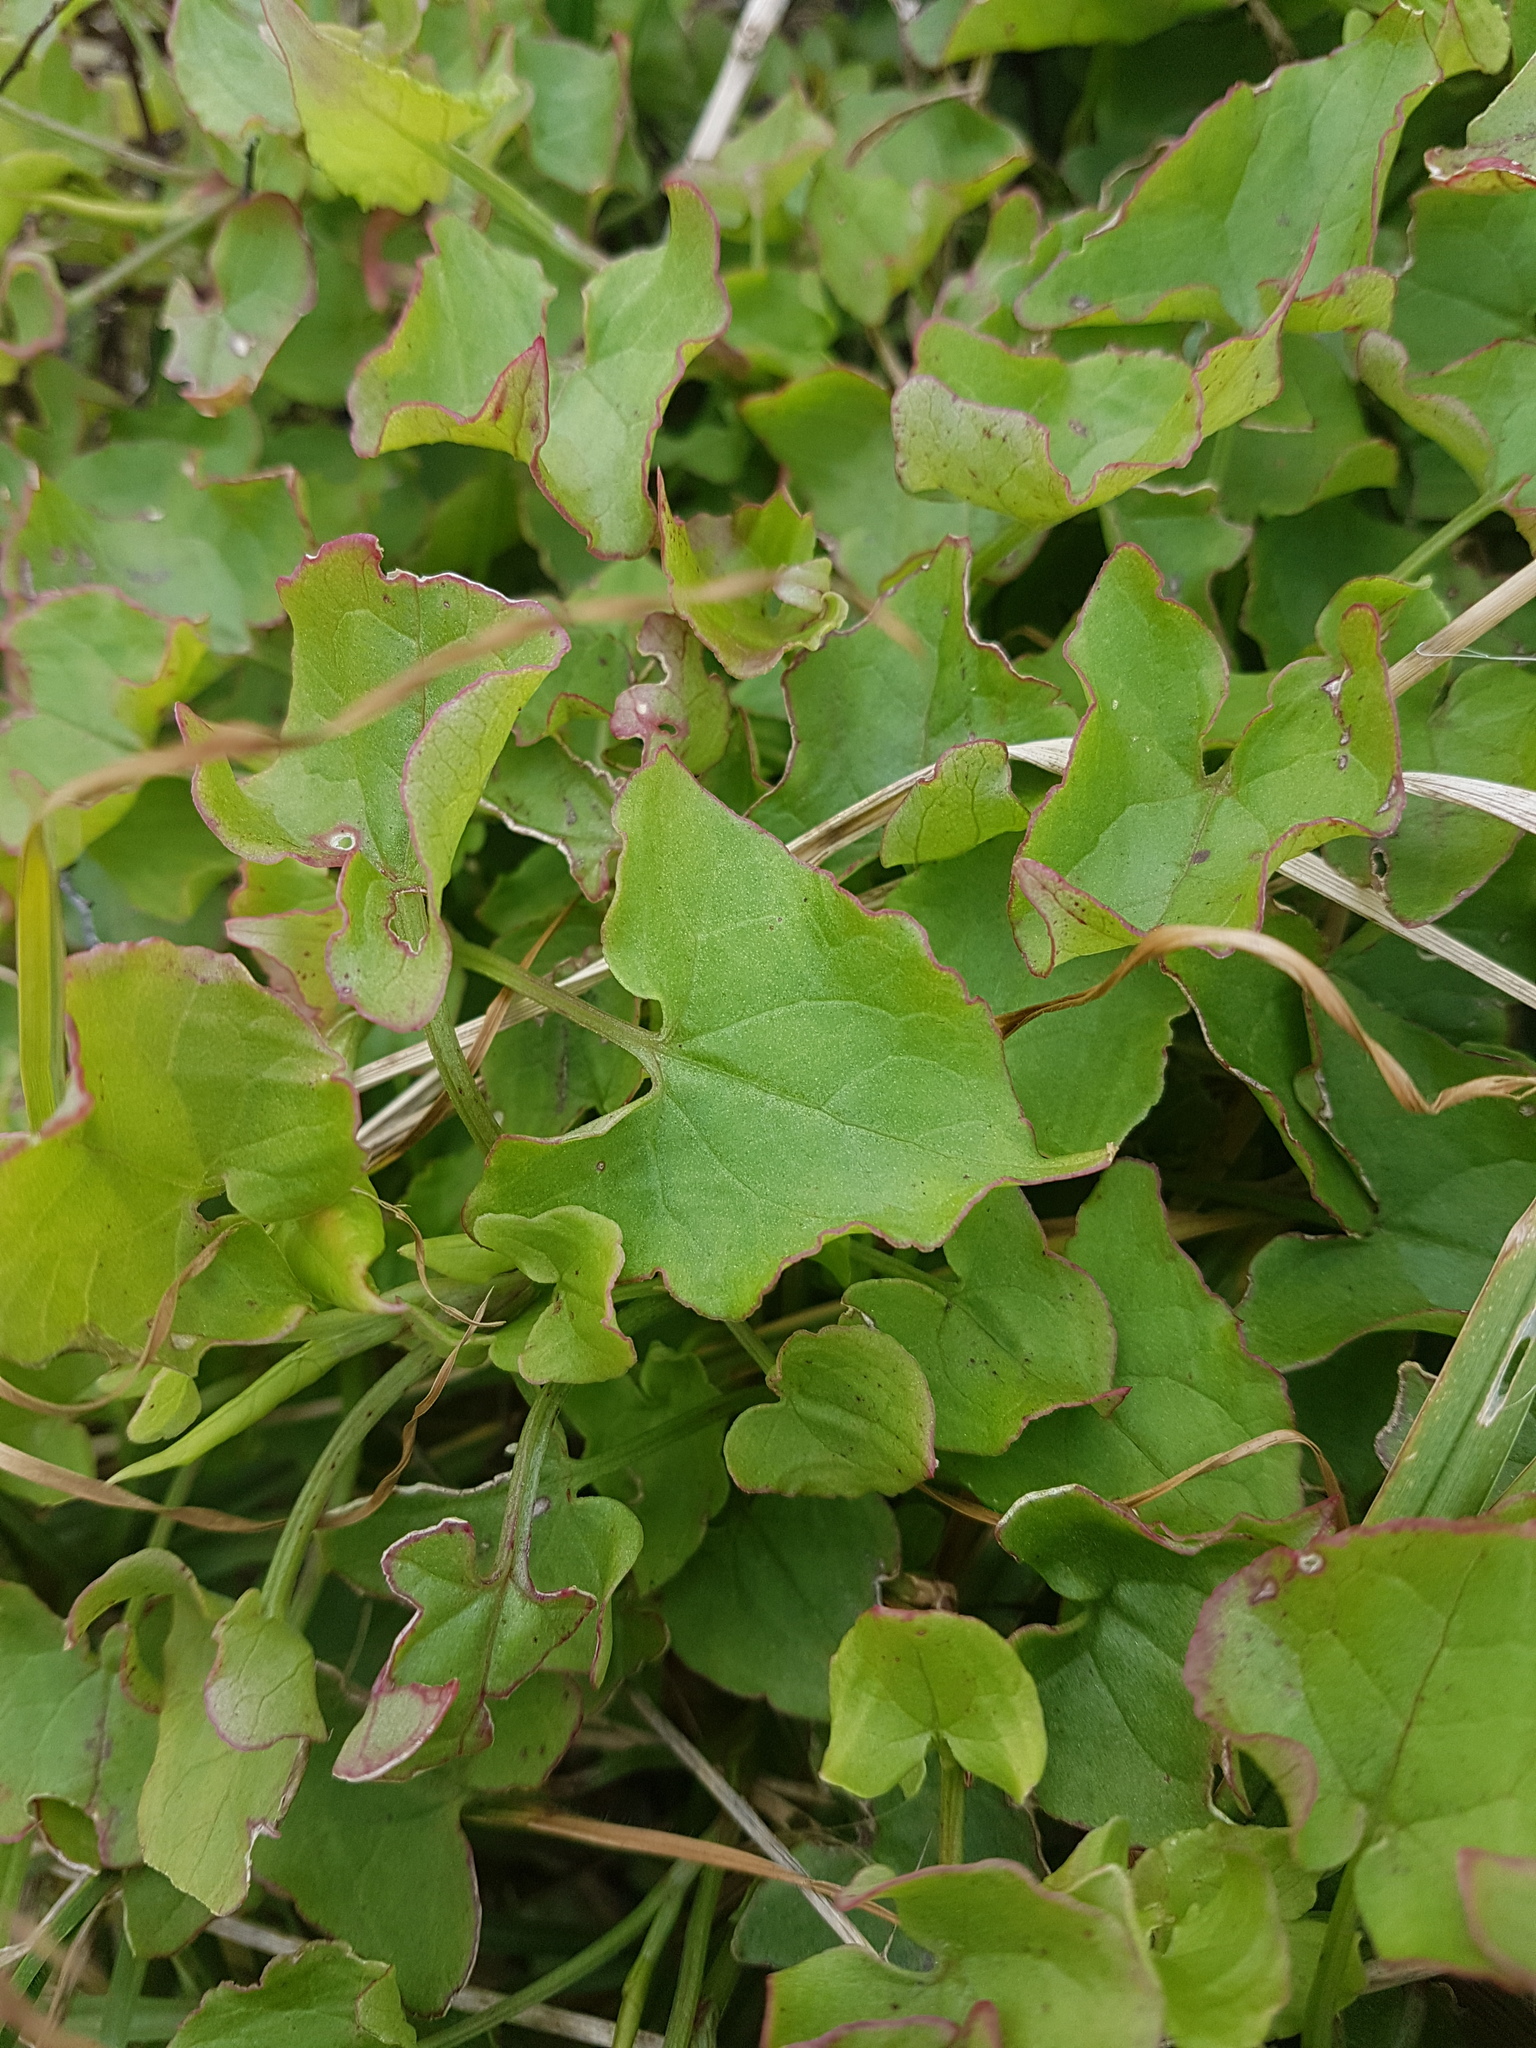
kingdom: Plantae
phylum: Tracheophyta
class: Magnoliopsida
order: Caryophyllales
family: Polygonaceae
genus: Rumex
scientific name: Rumex sagittatus
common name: Climbing dock
